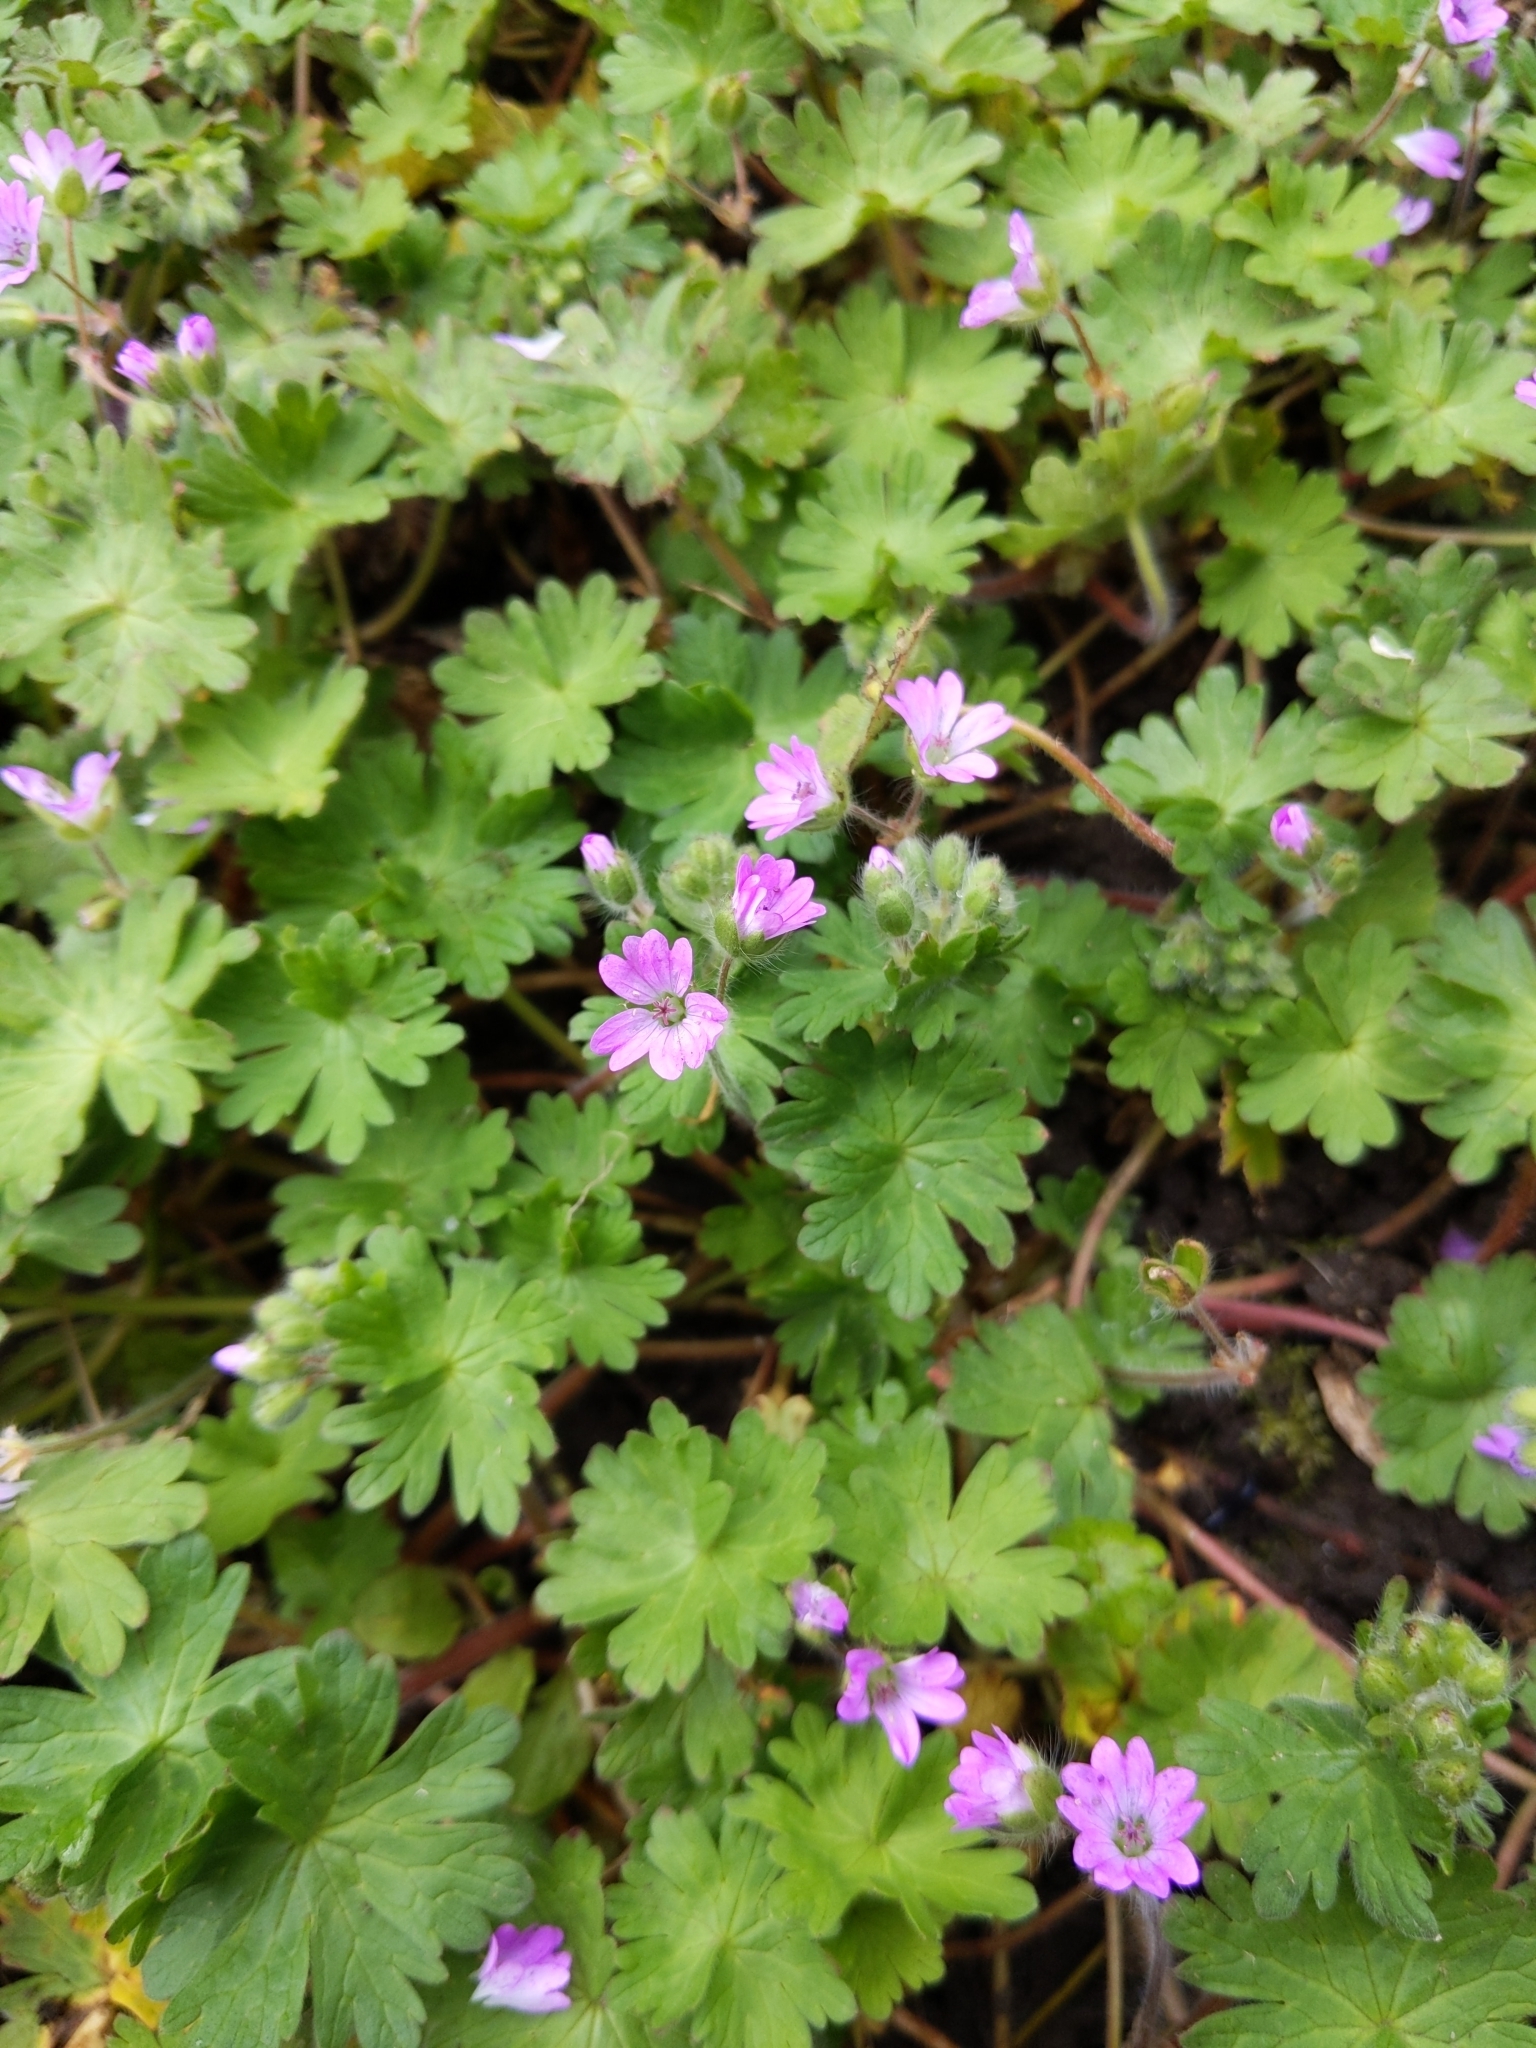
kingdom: Plantae
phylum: Tracheophyta
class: Magnoliopsida
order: Geraniales
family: Geraniaceae
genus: Geranium
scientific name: Geranium molle
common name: Dove's-foot crane's-bill
